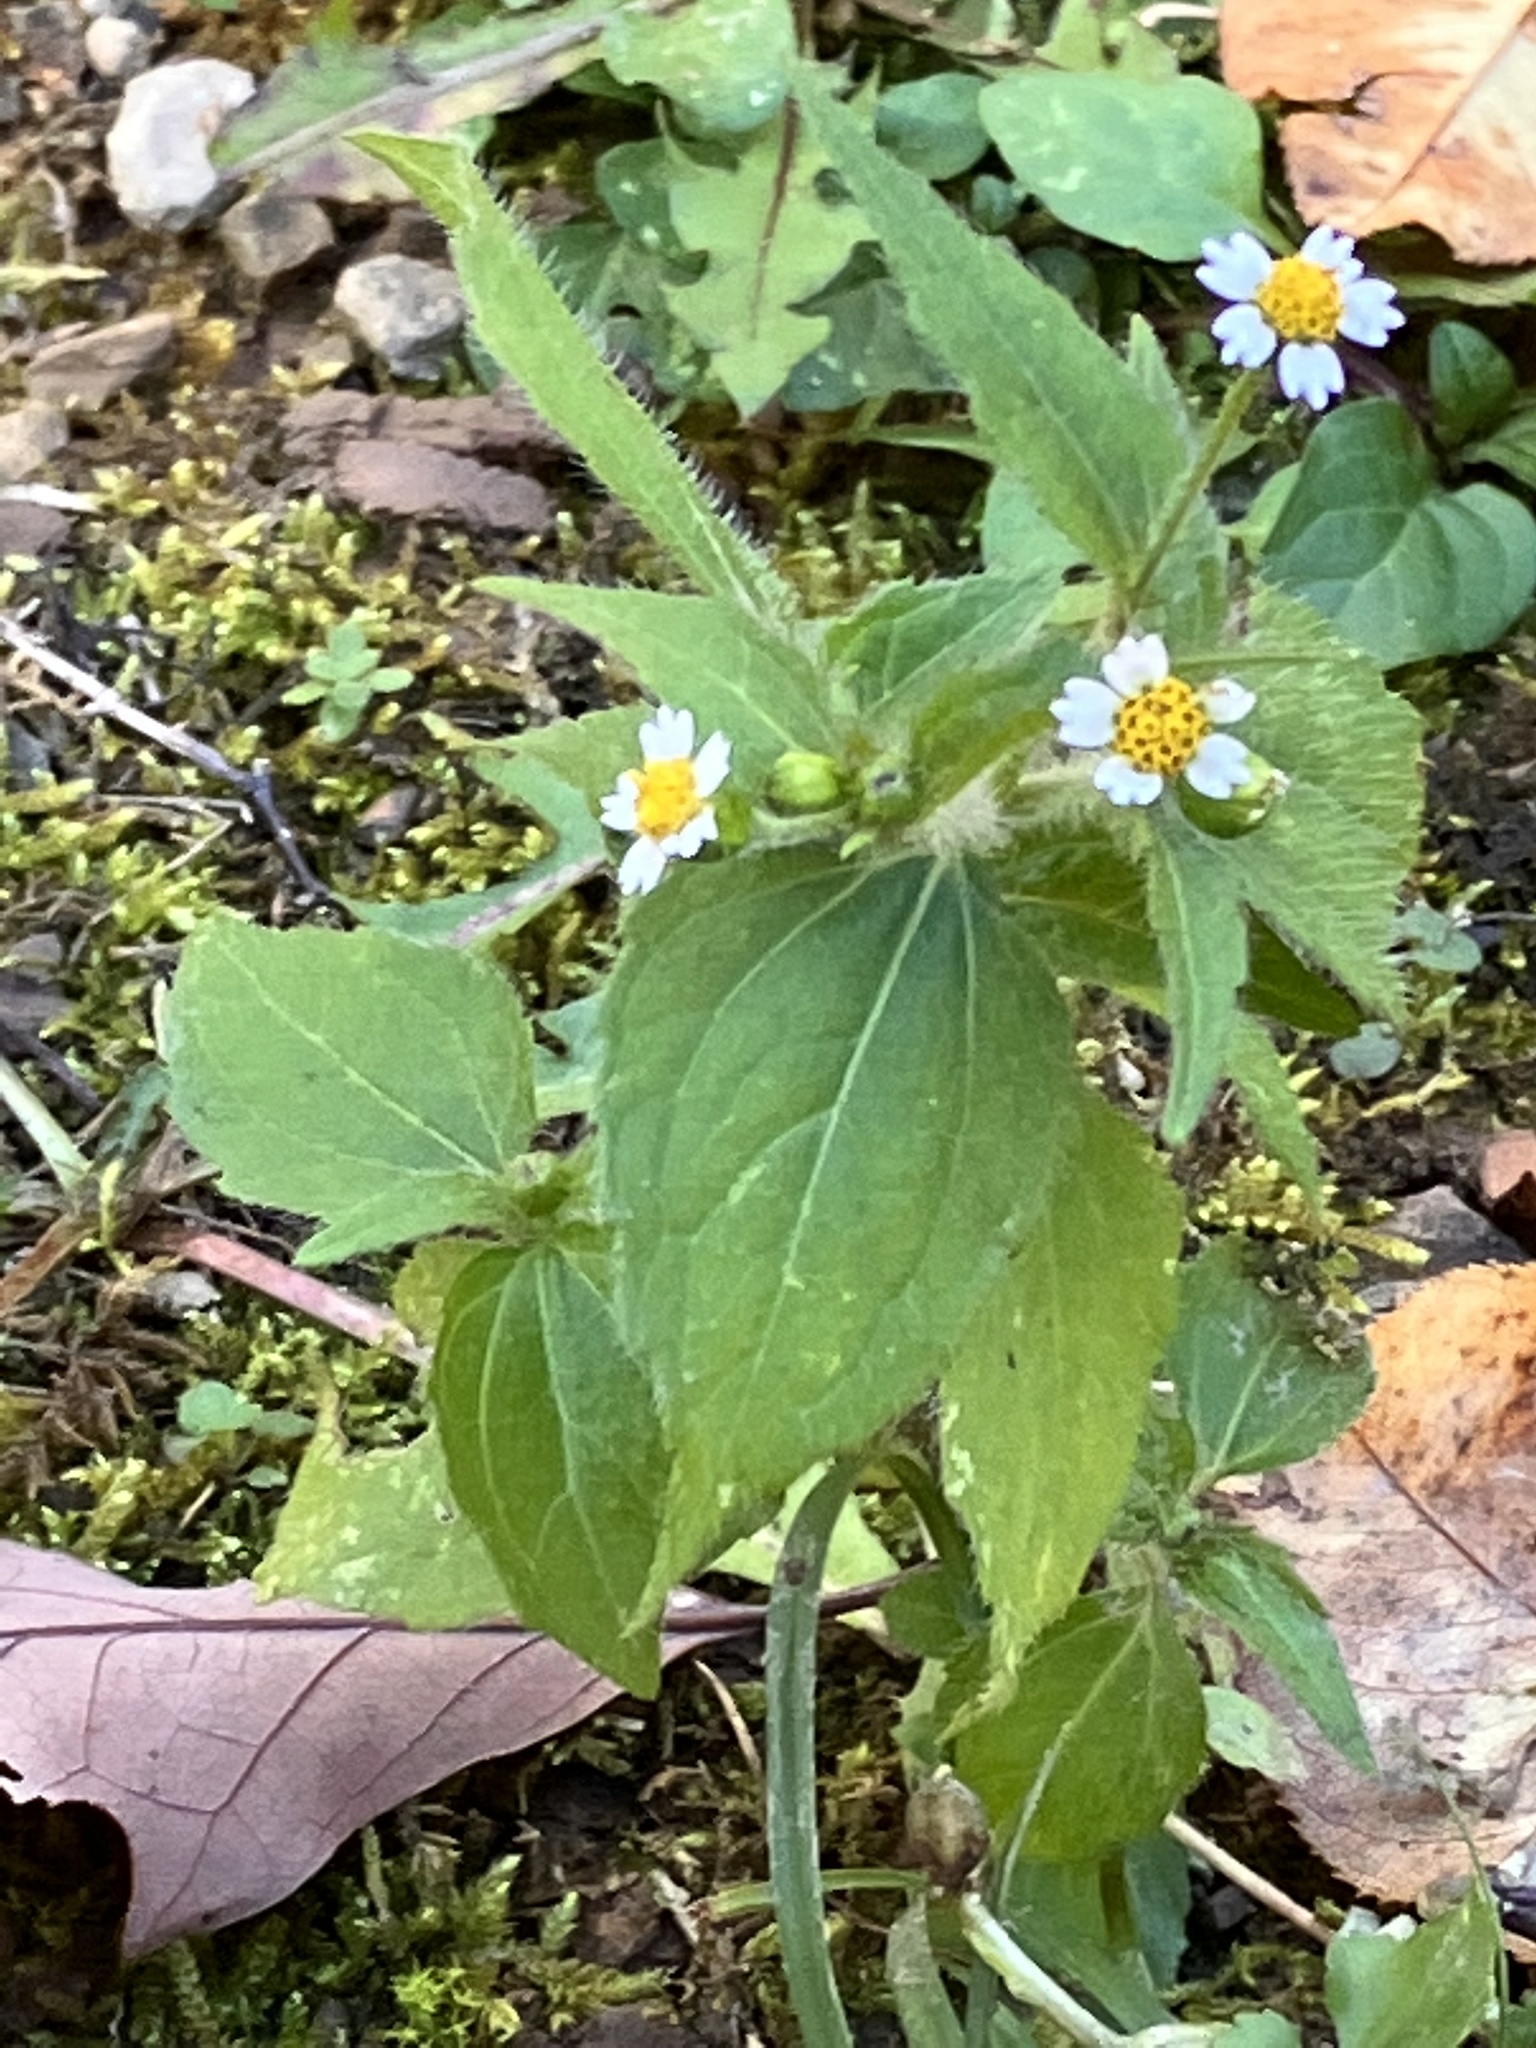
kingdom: Plantae
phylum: Tracheophyta
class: Magnoliopsida
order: Asterales
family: Asteraceae
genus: Galinsoga
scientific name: Galinsoga quadriradiata
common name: Shaggy soldier
